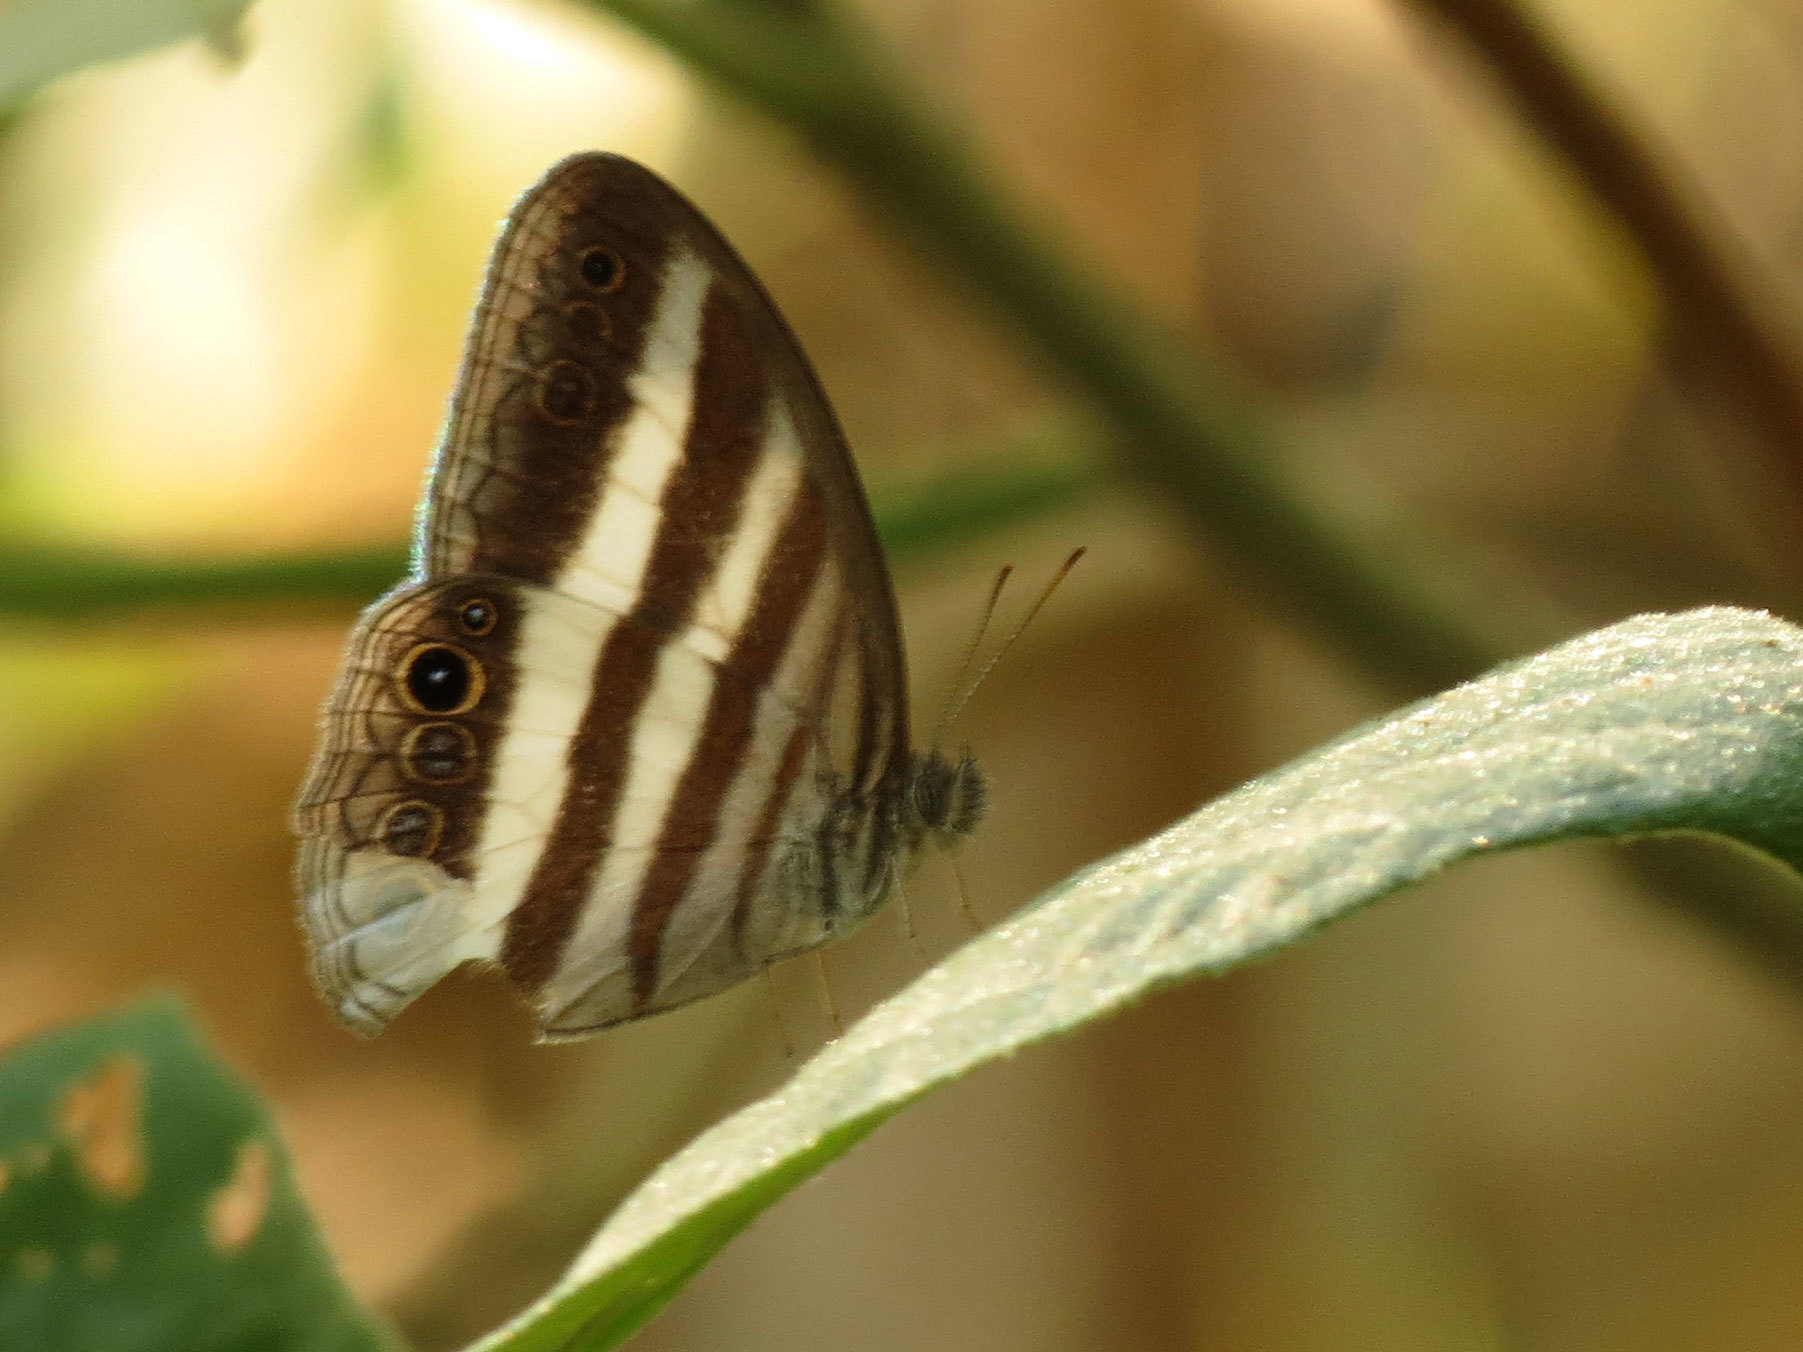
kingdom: Animalia
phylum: Arthropoda
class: Insecta
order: Lepidoptera
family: Nymphalidae
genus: Pareuptychia
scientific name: Pareuptychia hesione
